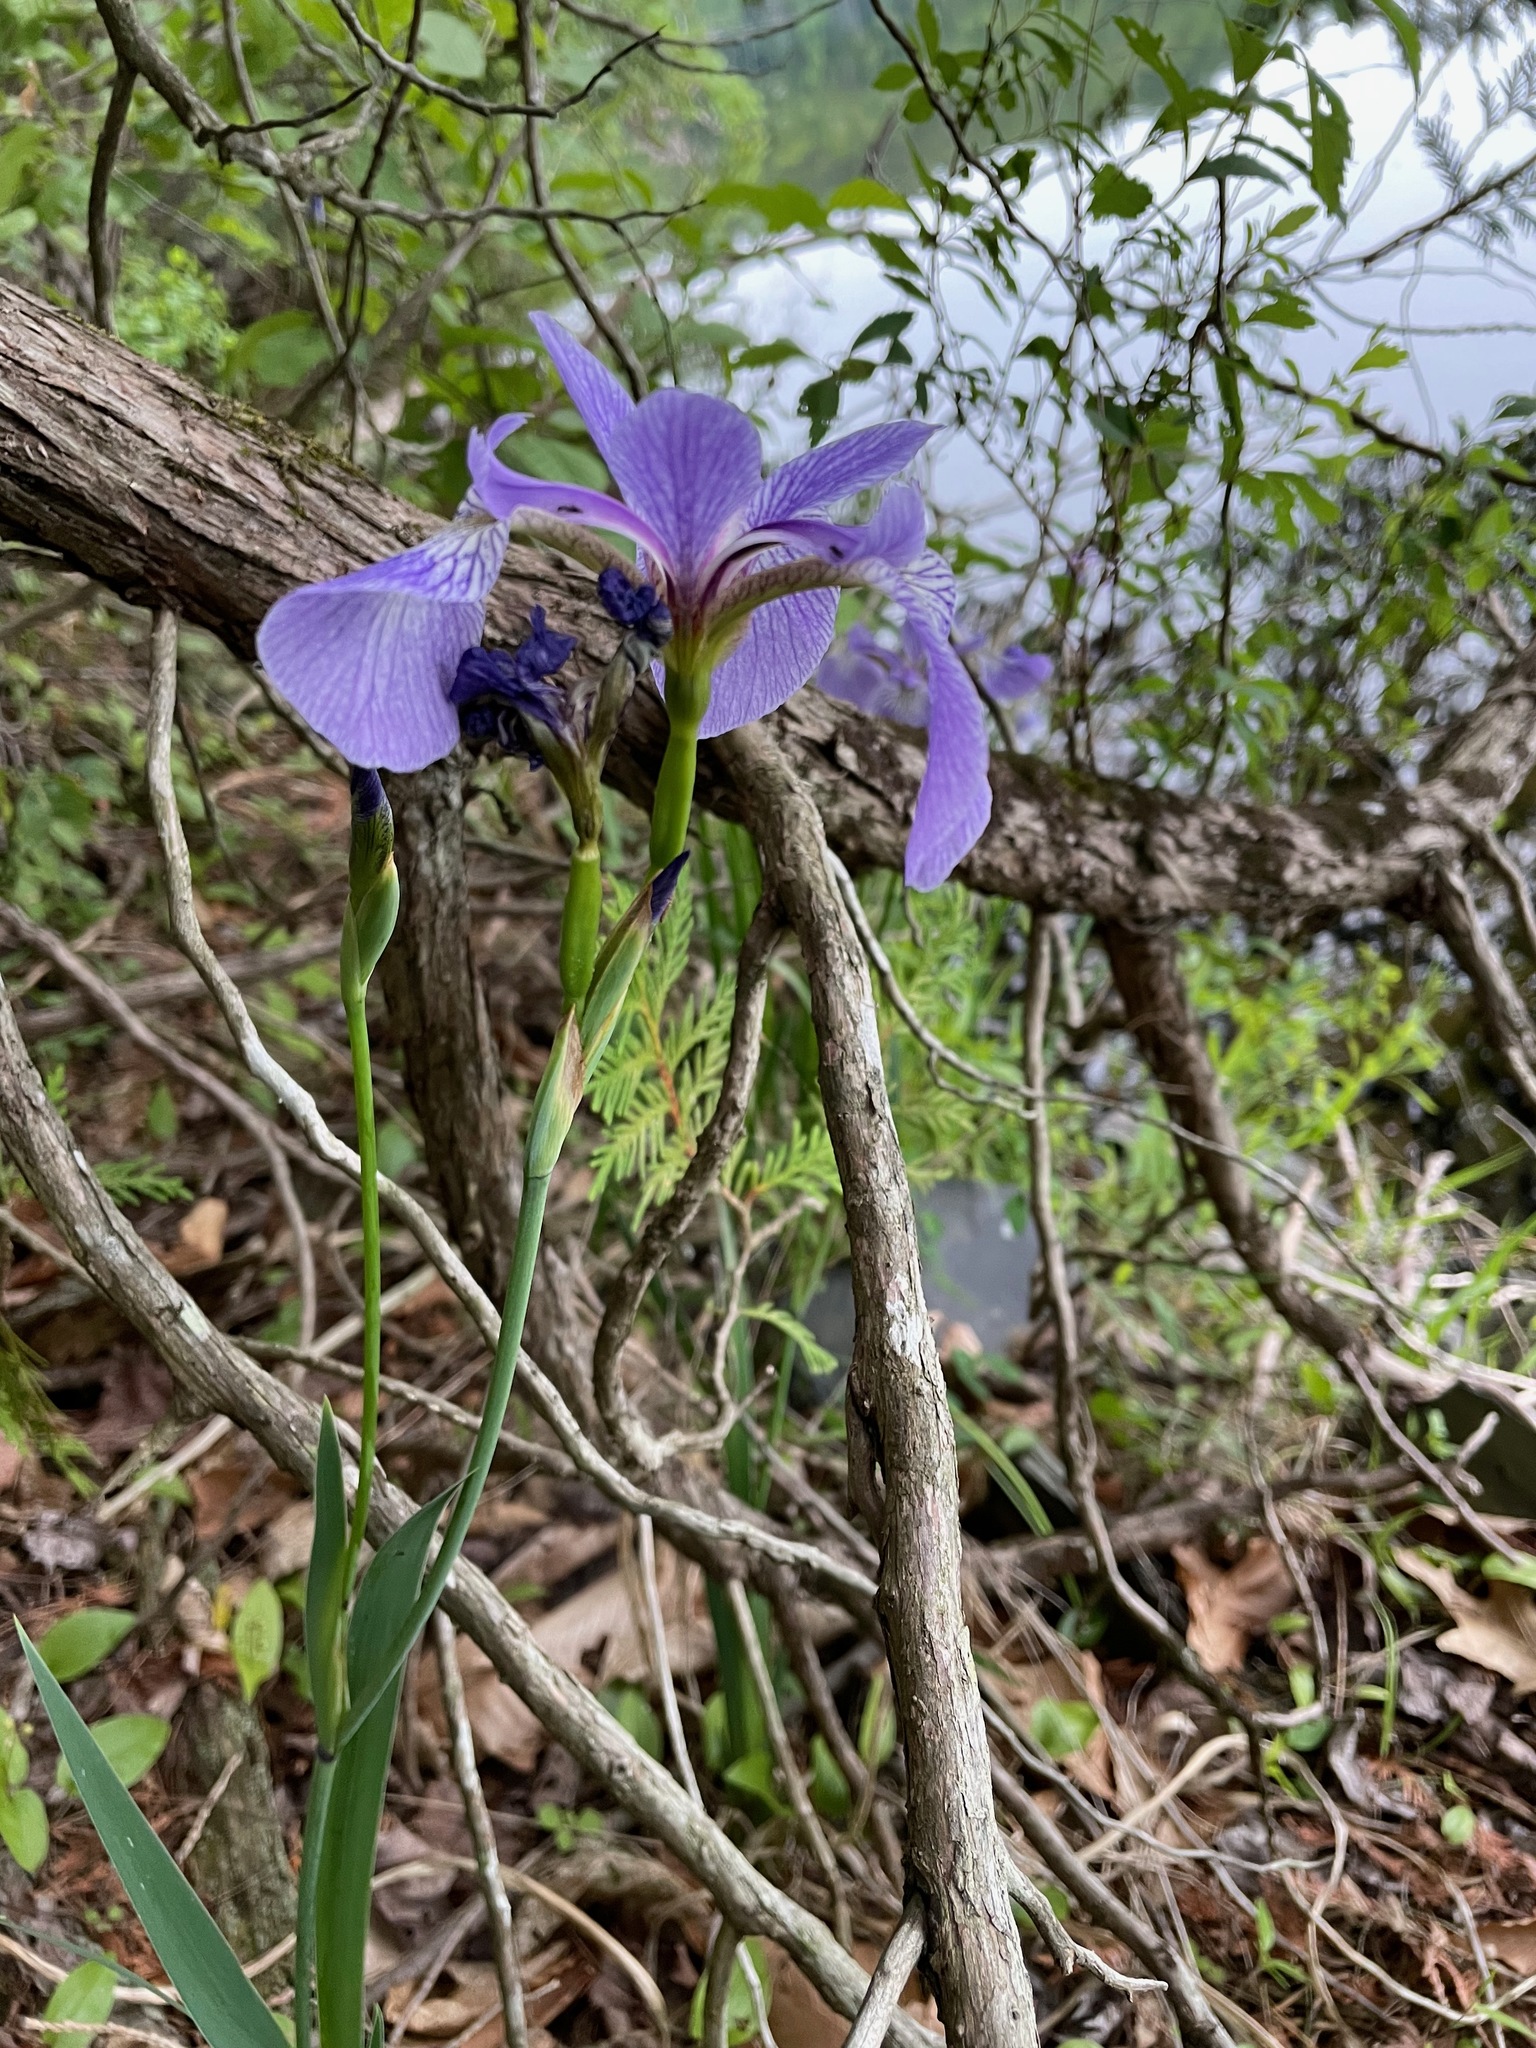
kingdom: Plantae
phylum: Tracheophyta
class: Liliopsida
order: Asparagales
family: Iridaceae
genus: Iris
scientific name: Iris versicolor
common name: Purple iris
